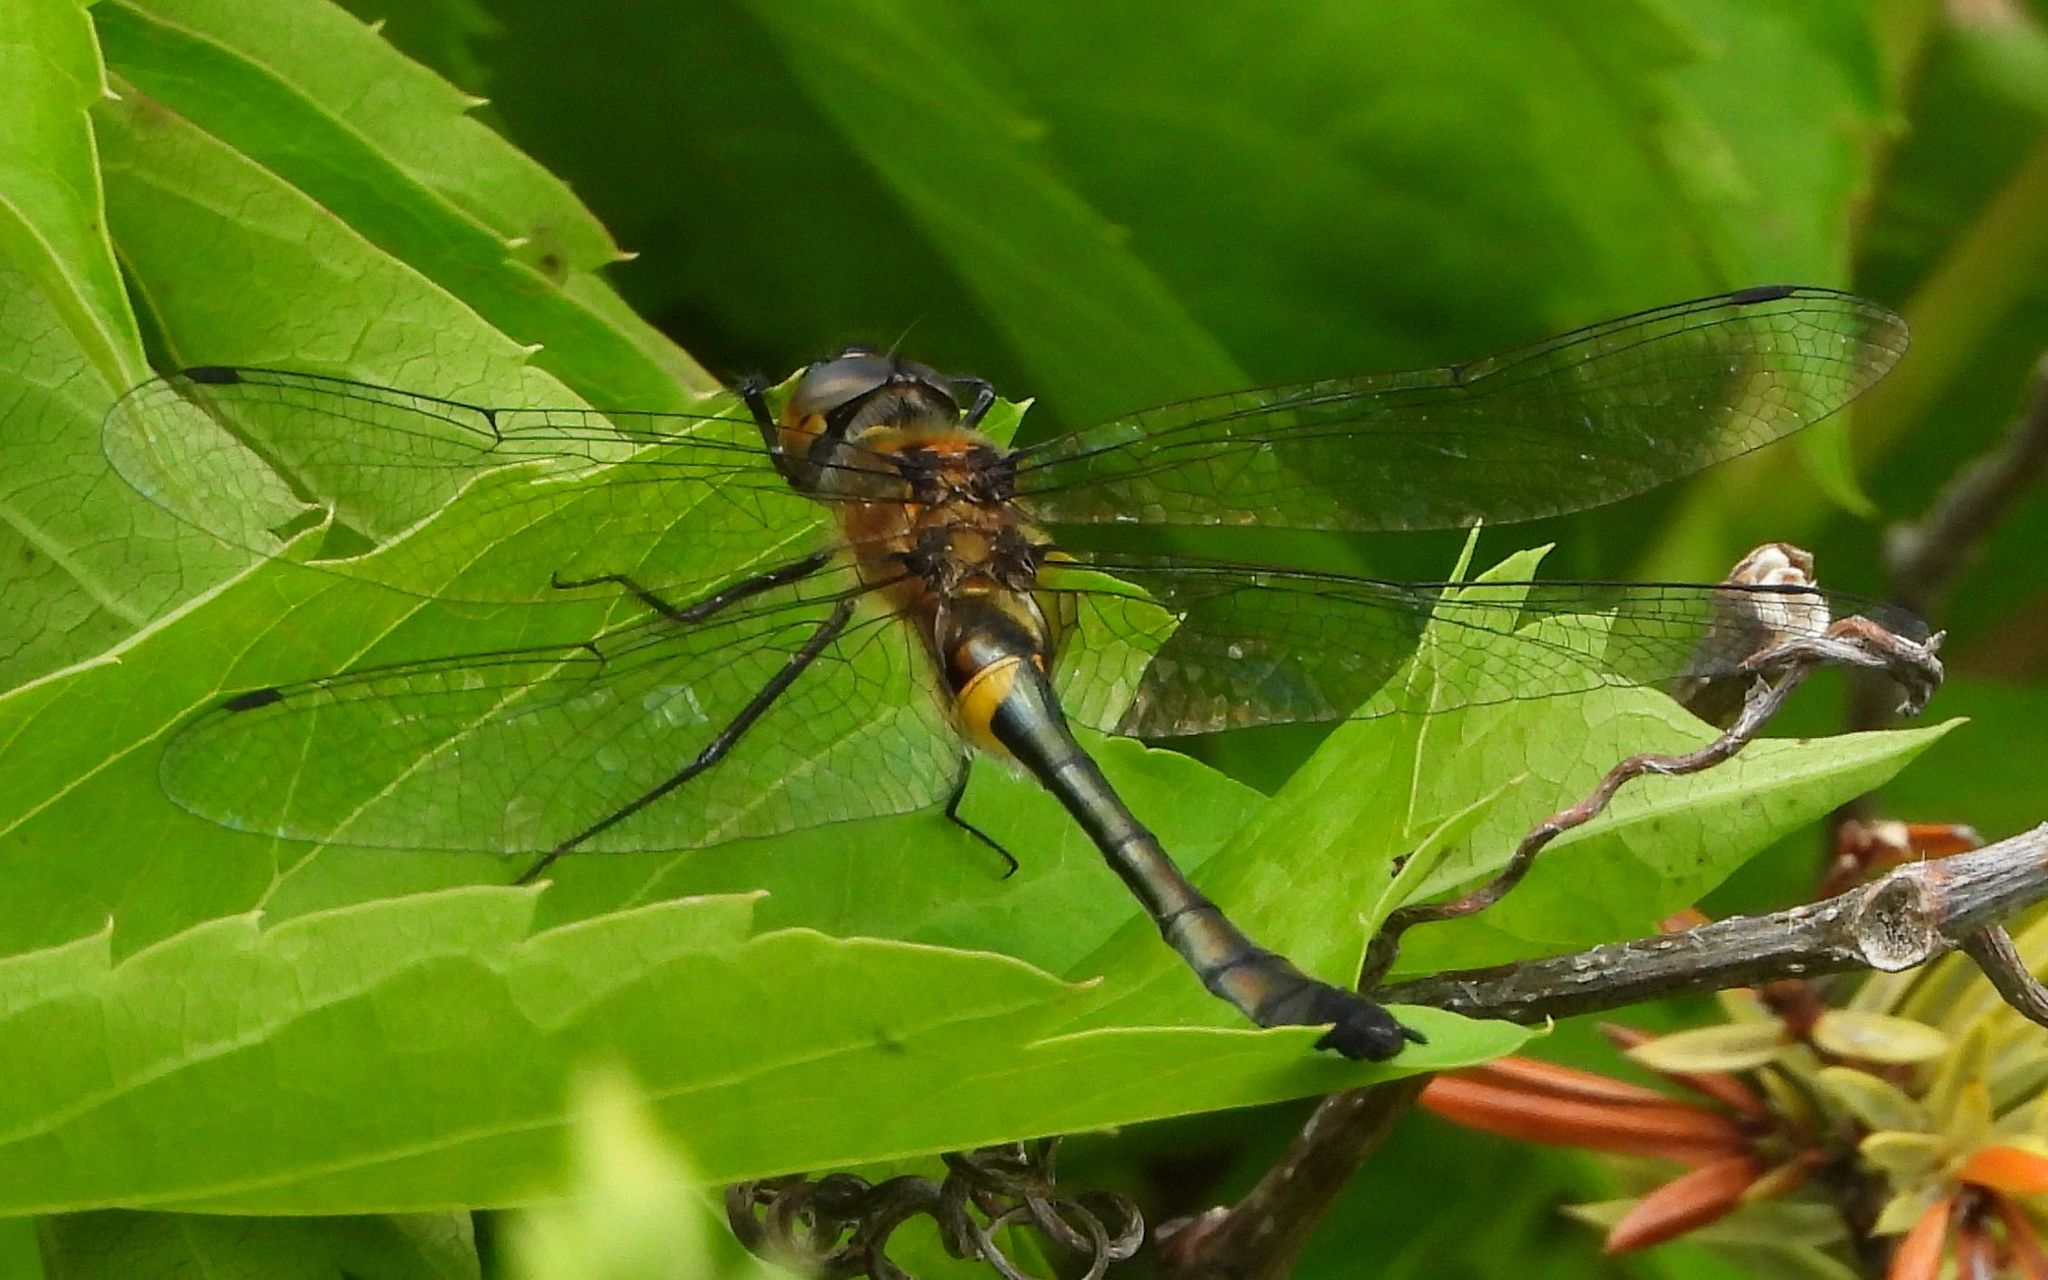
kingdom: Animalia
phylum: Arthropoda
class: Insecta
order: Odonata
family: Corduliidae
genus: Dorocordulia
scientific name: Dorocordulia libera
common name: Racket-tailed emerald
